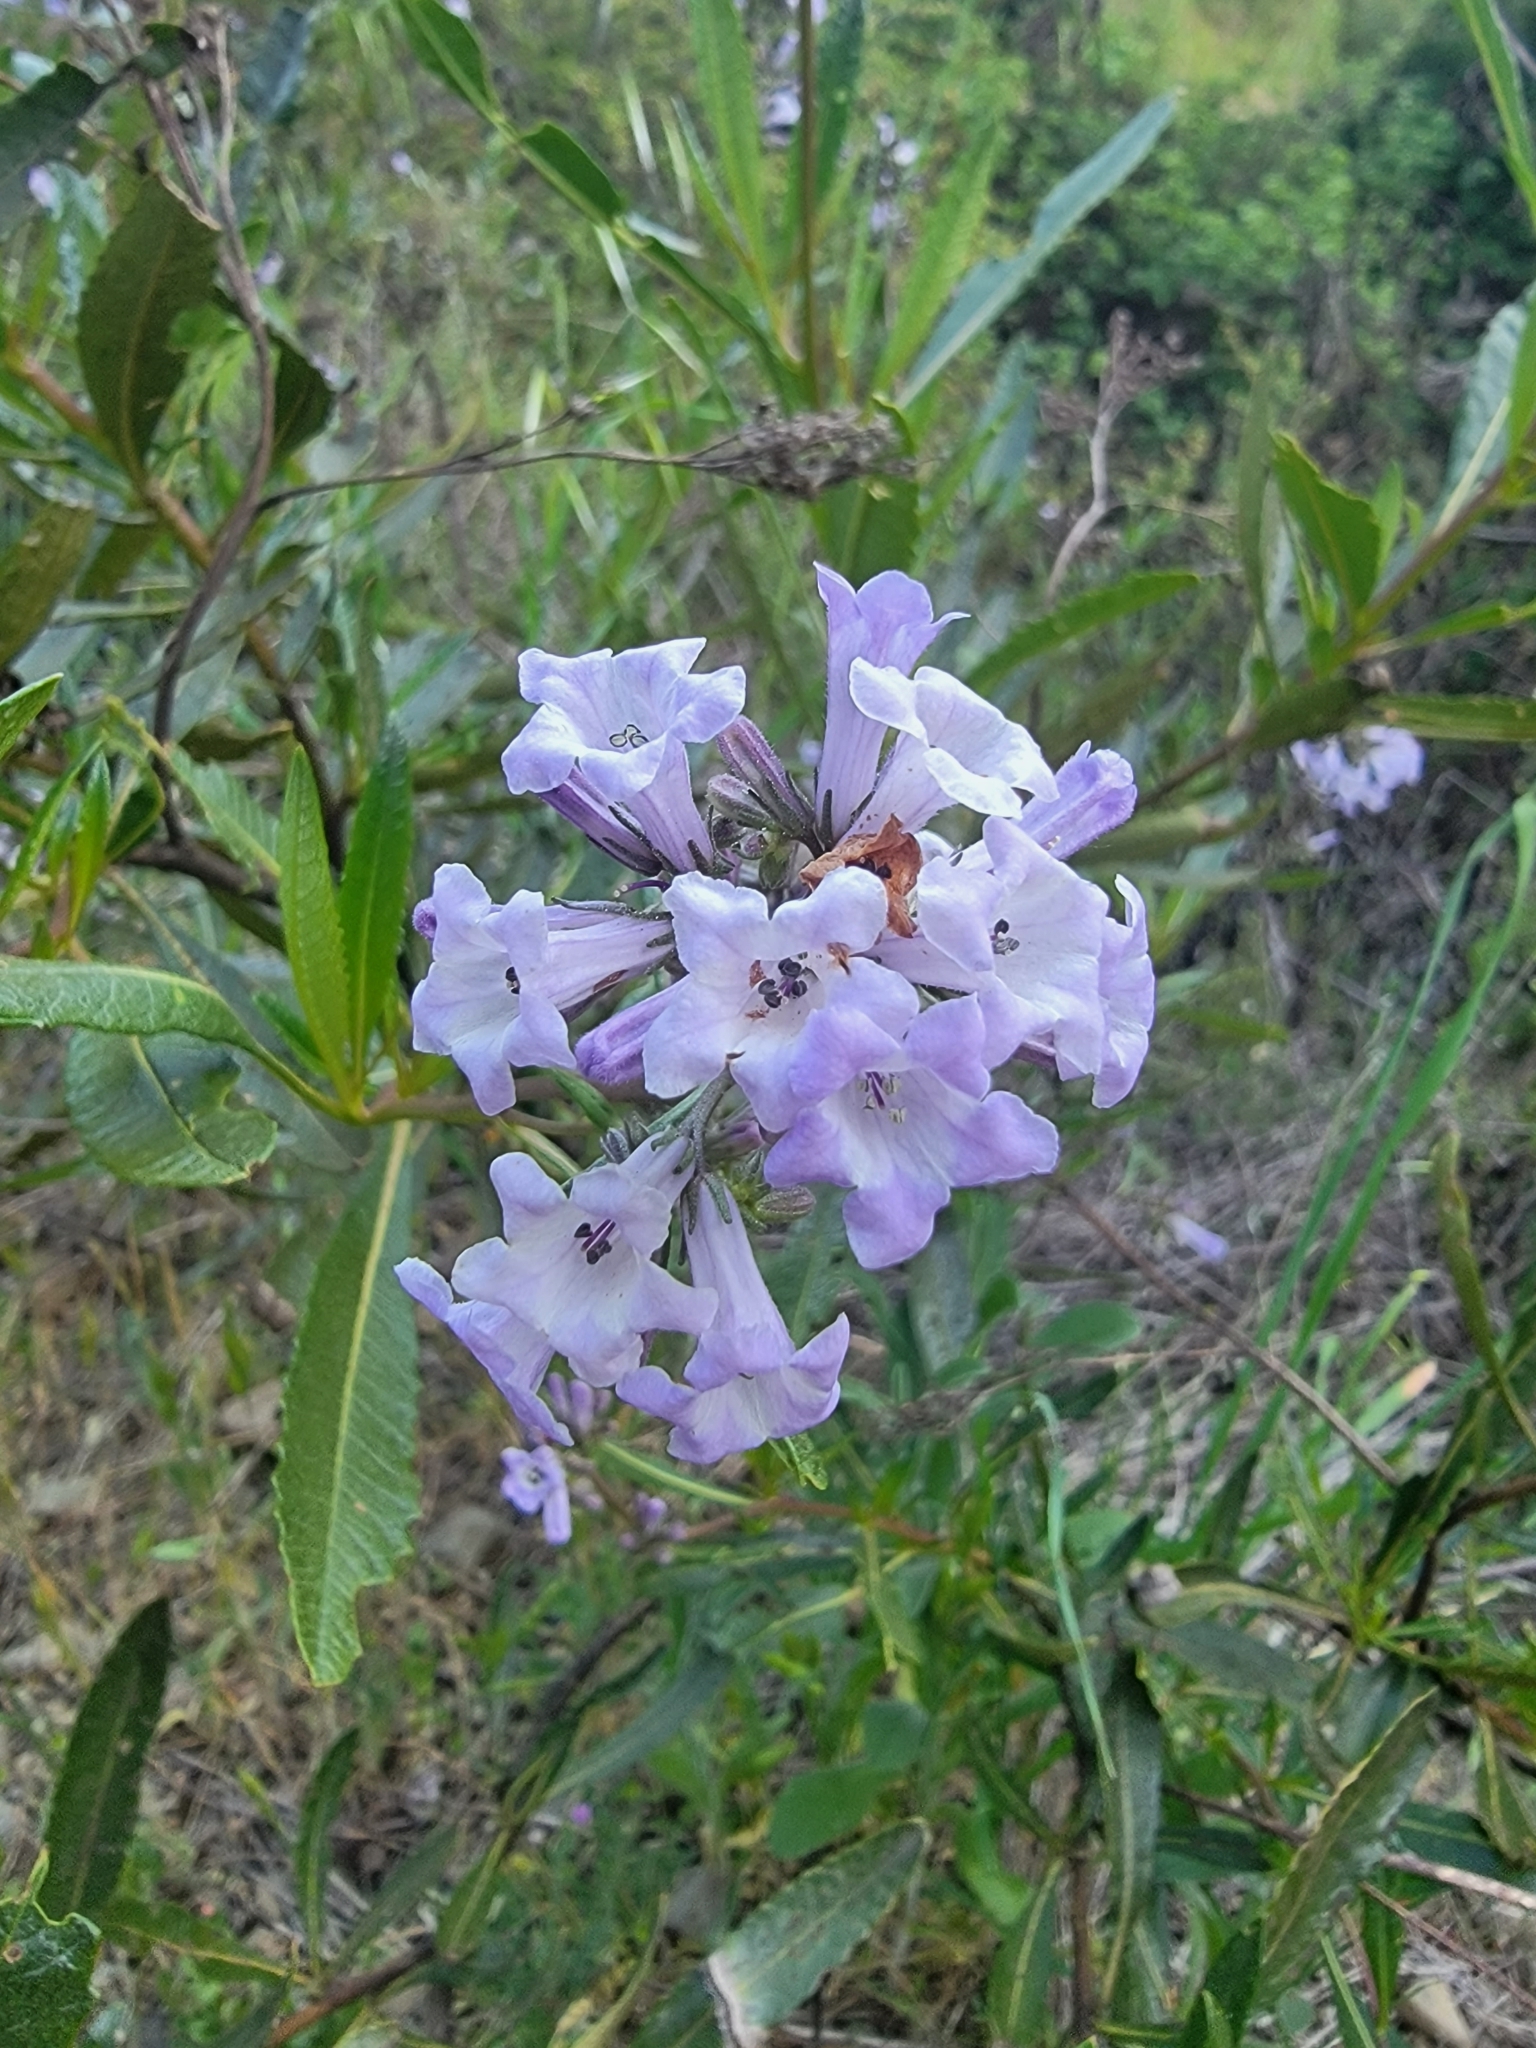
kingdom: Plantae
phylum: Tracheophyta
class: Magnoliopsida
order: Boraginales
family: Namaceae
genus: Eriodictyon
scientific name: Eriodictyon californicum
